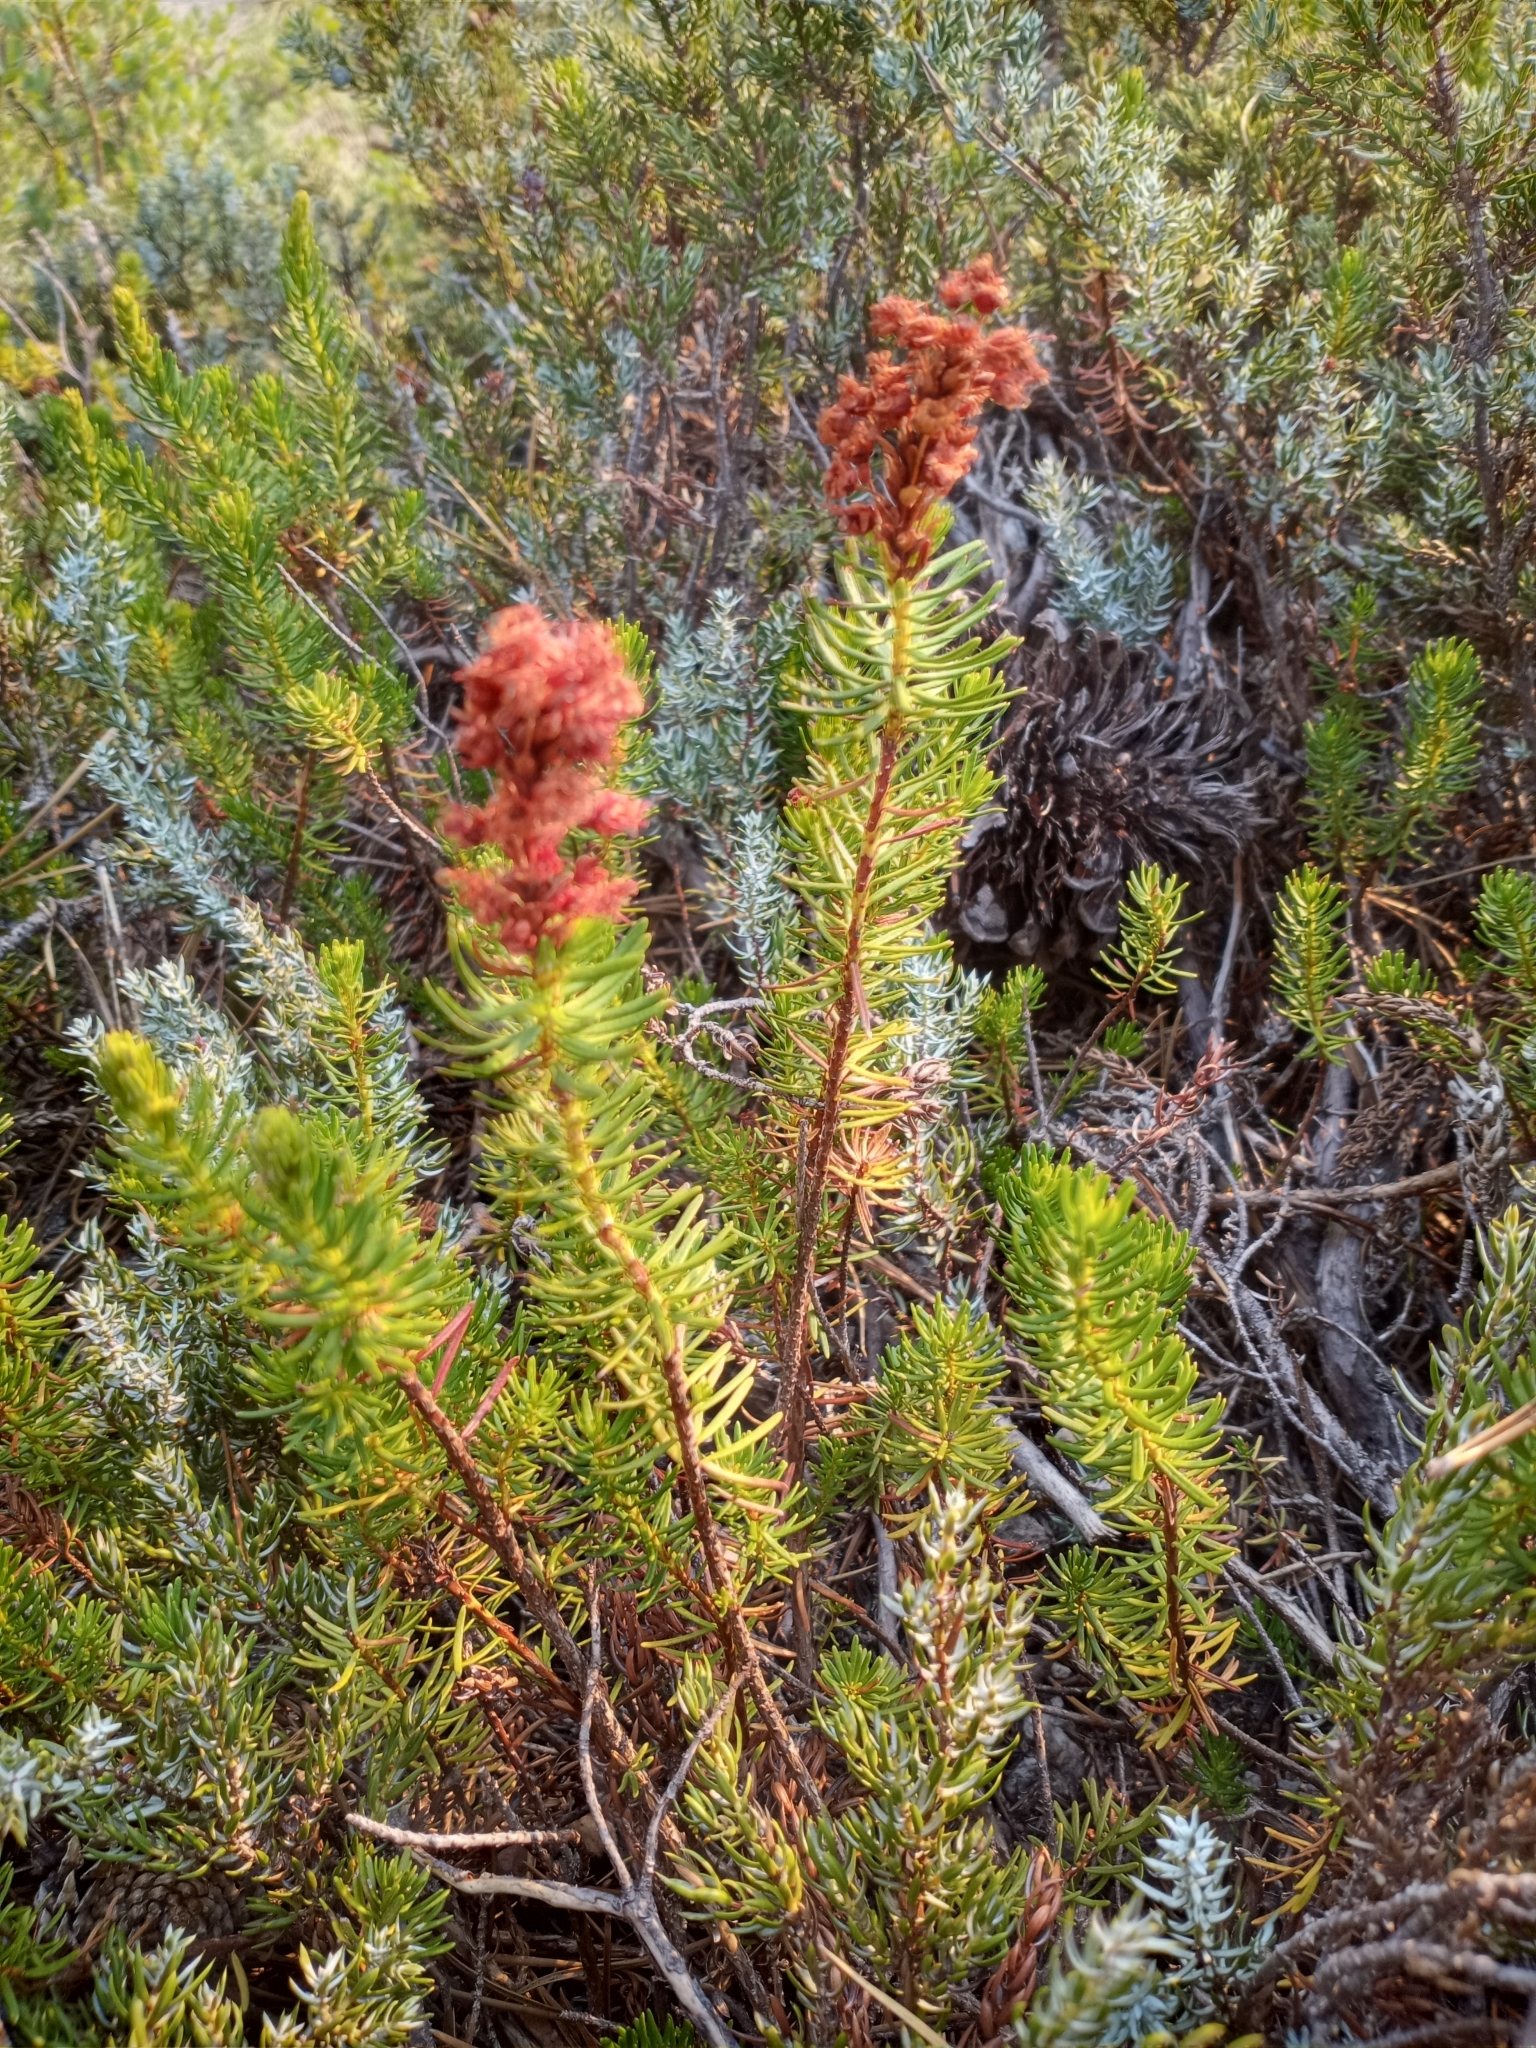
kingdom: Plantae
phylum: Tracheophyta
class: Magnoliopsida
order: Ericales
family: Ericaceae
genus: Phyllodoce
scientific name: Phyllodoce breweri
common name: Brewer's mountain-heather
